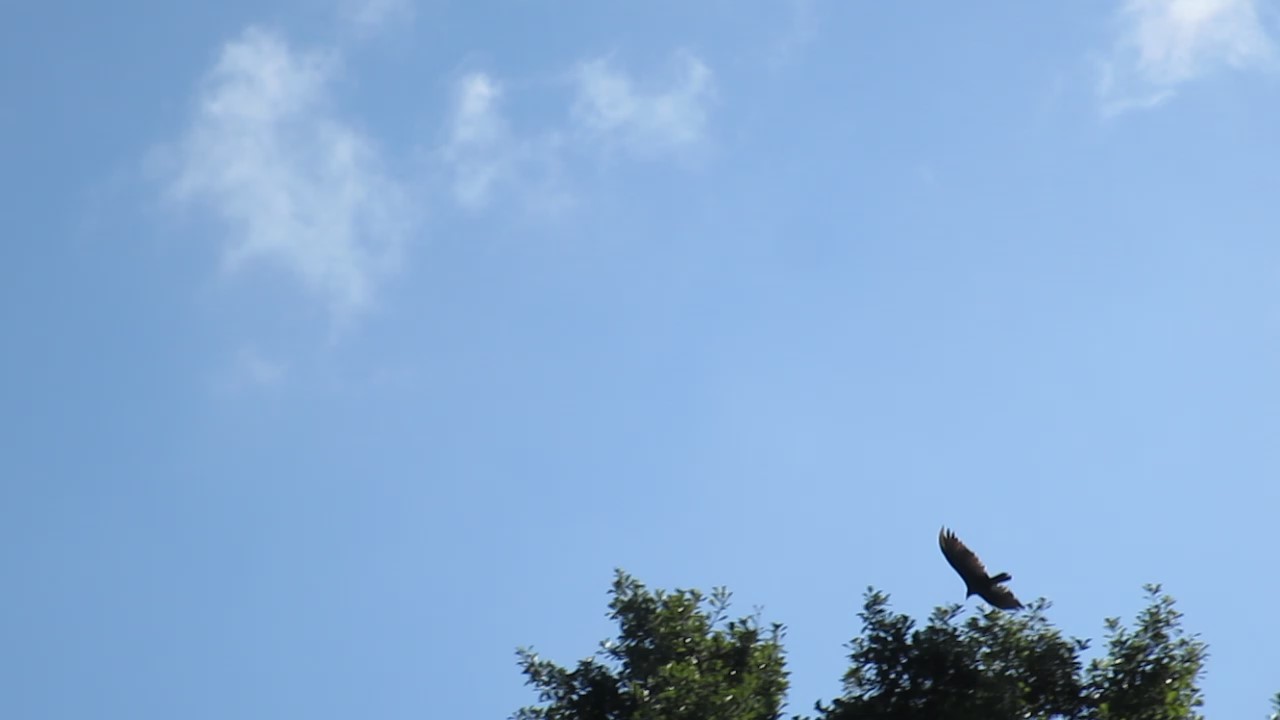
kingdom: Animalia
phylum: Chordata
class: Aves
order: Accipitriformes
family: Cathartidae
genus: Cathartes
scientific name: Cathartes aura
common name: Turkey vulture
